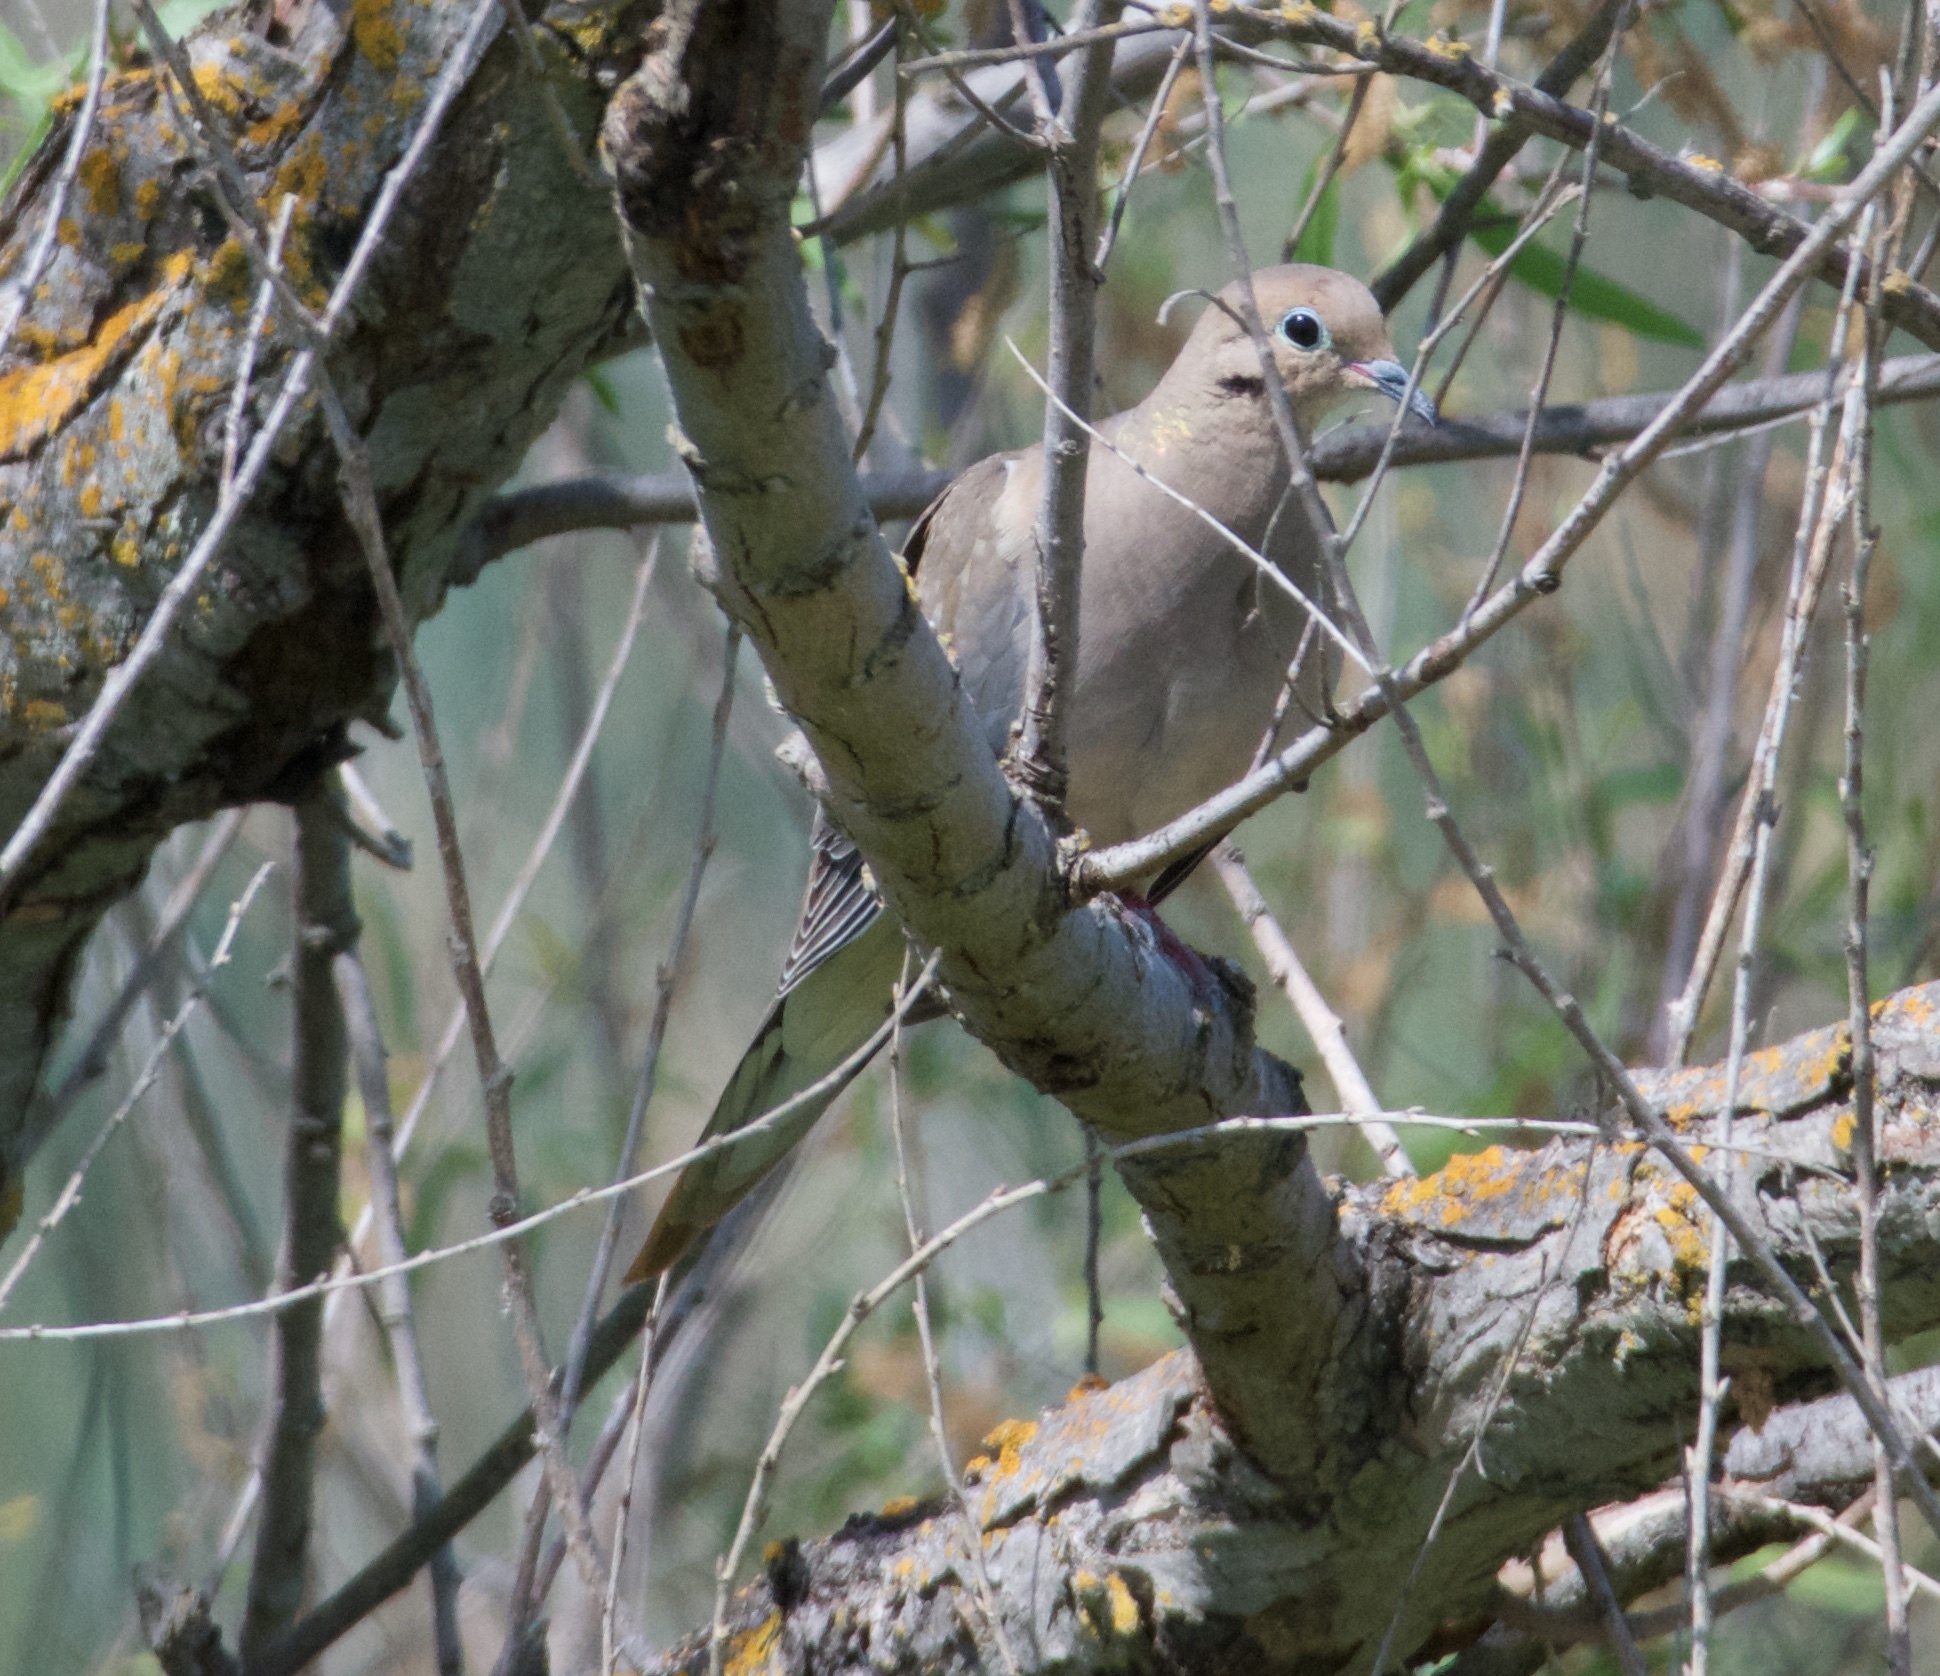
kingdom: Animalia
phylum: Chordata
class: Aves
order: Columbiformes
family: Columbidae
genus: Zenaida
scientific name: Zenaida macroura
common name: Mourning dove
